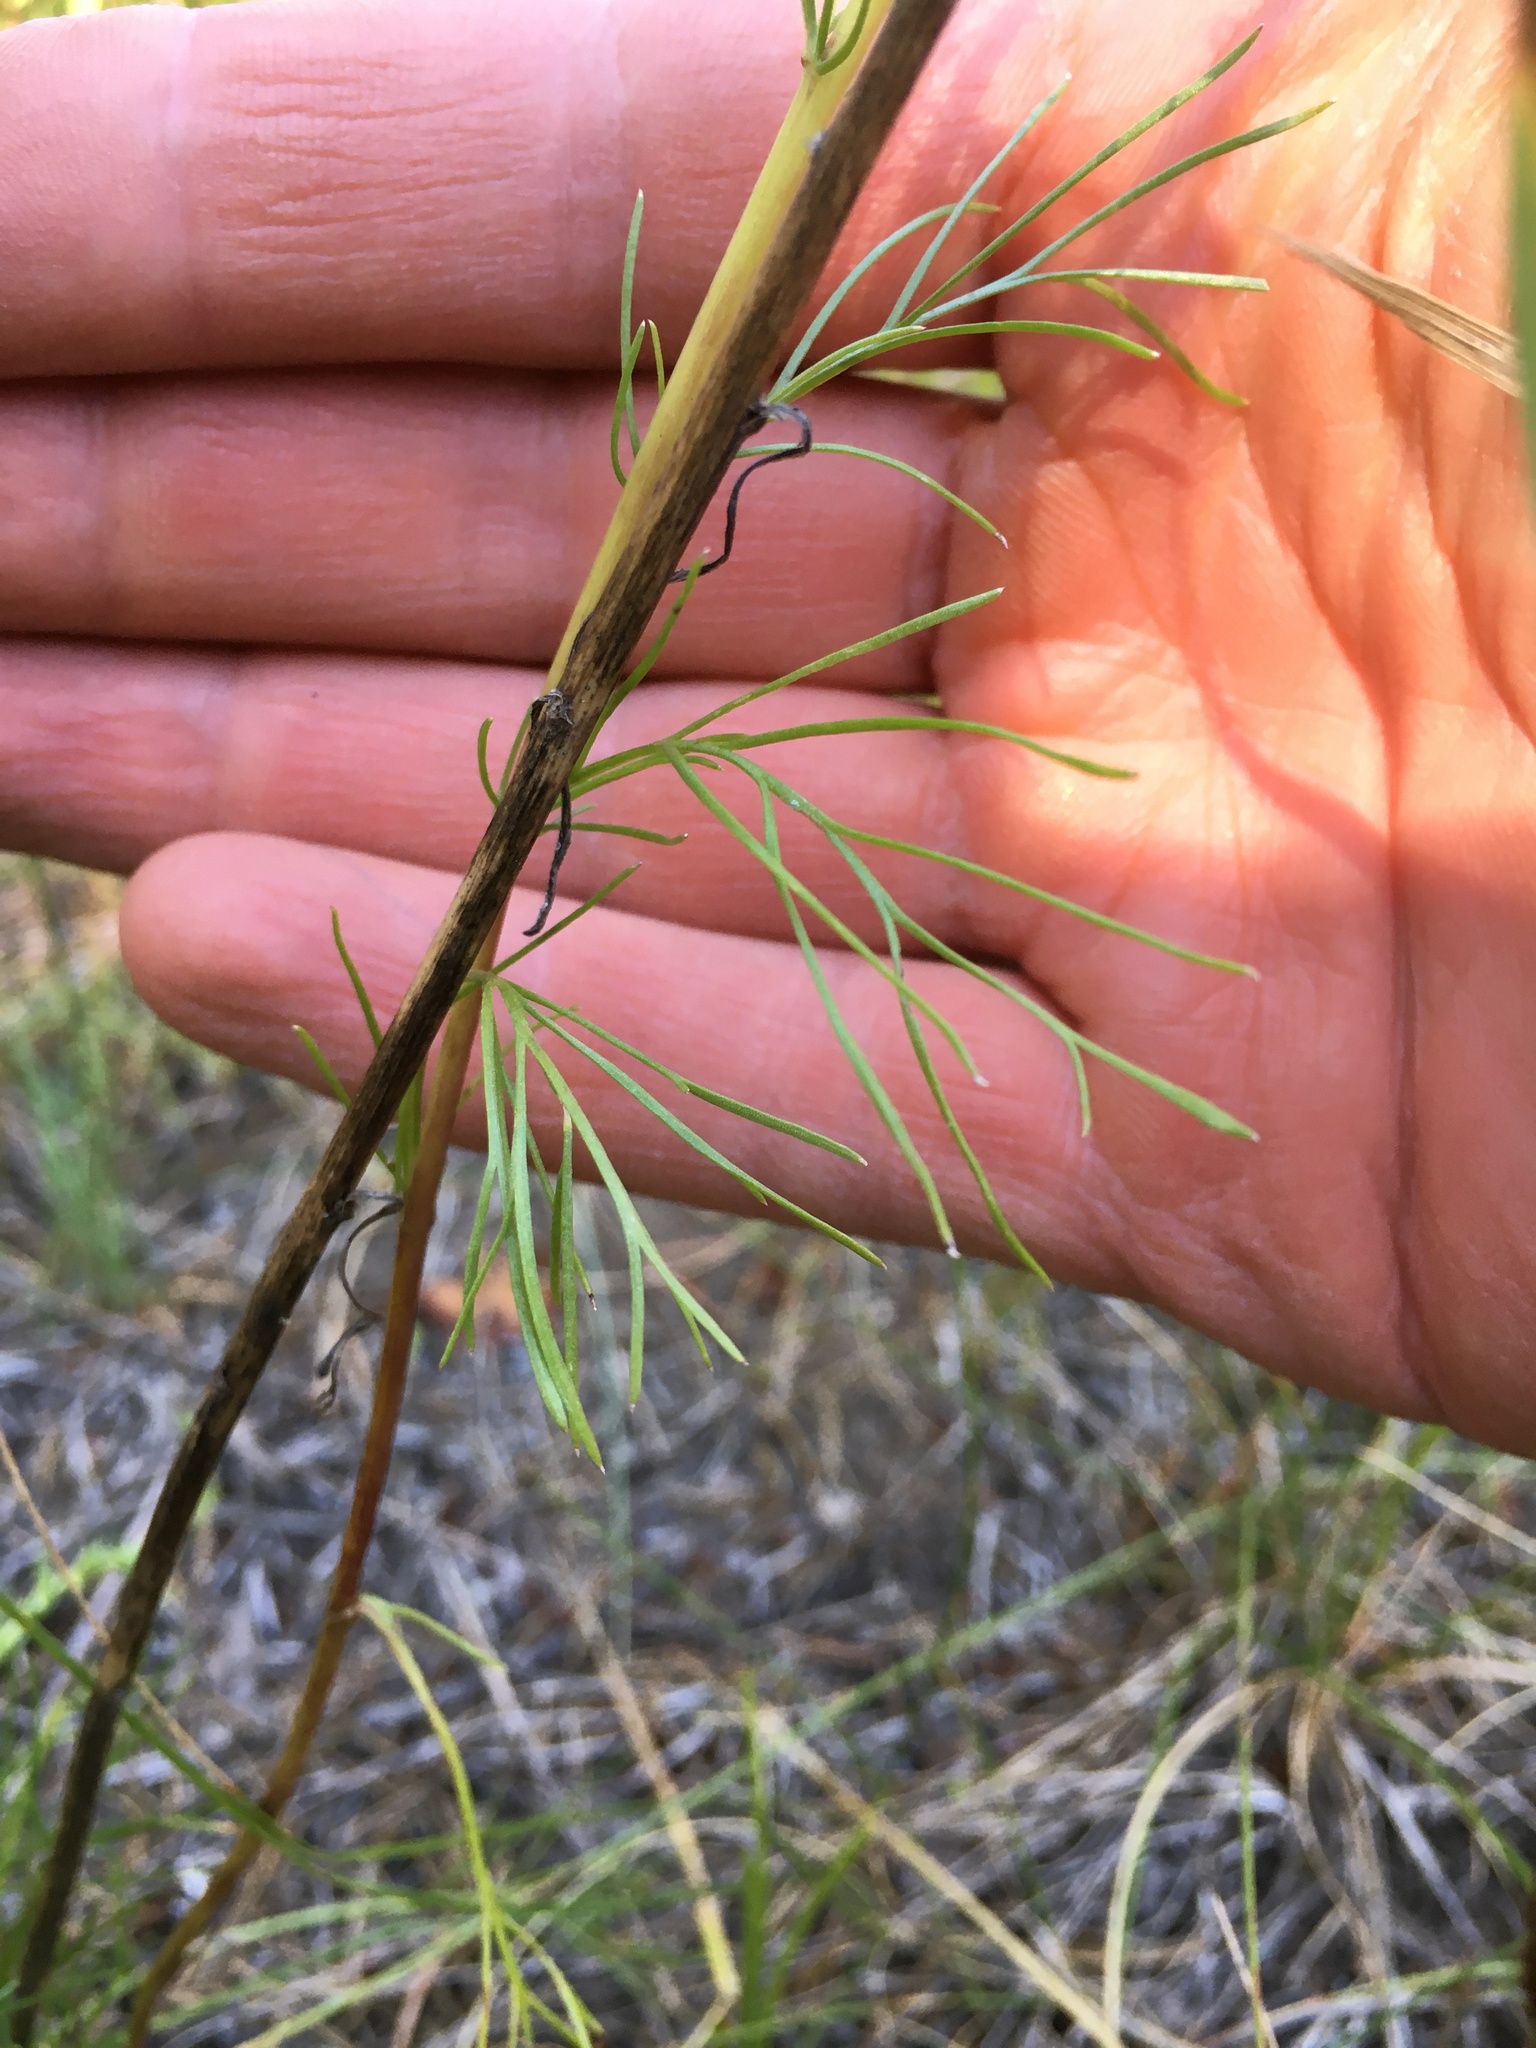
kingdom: Plantae
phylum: Tracheophyta
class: Magnoliopsida
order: Asterales
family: Asteraceae
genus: Artemisia
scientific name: Artemisia campestris
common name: Field wormwood
